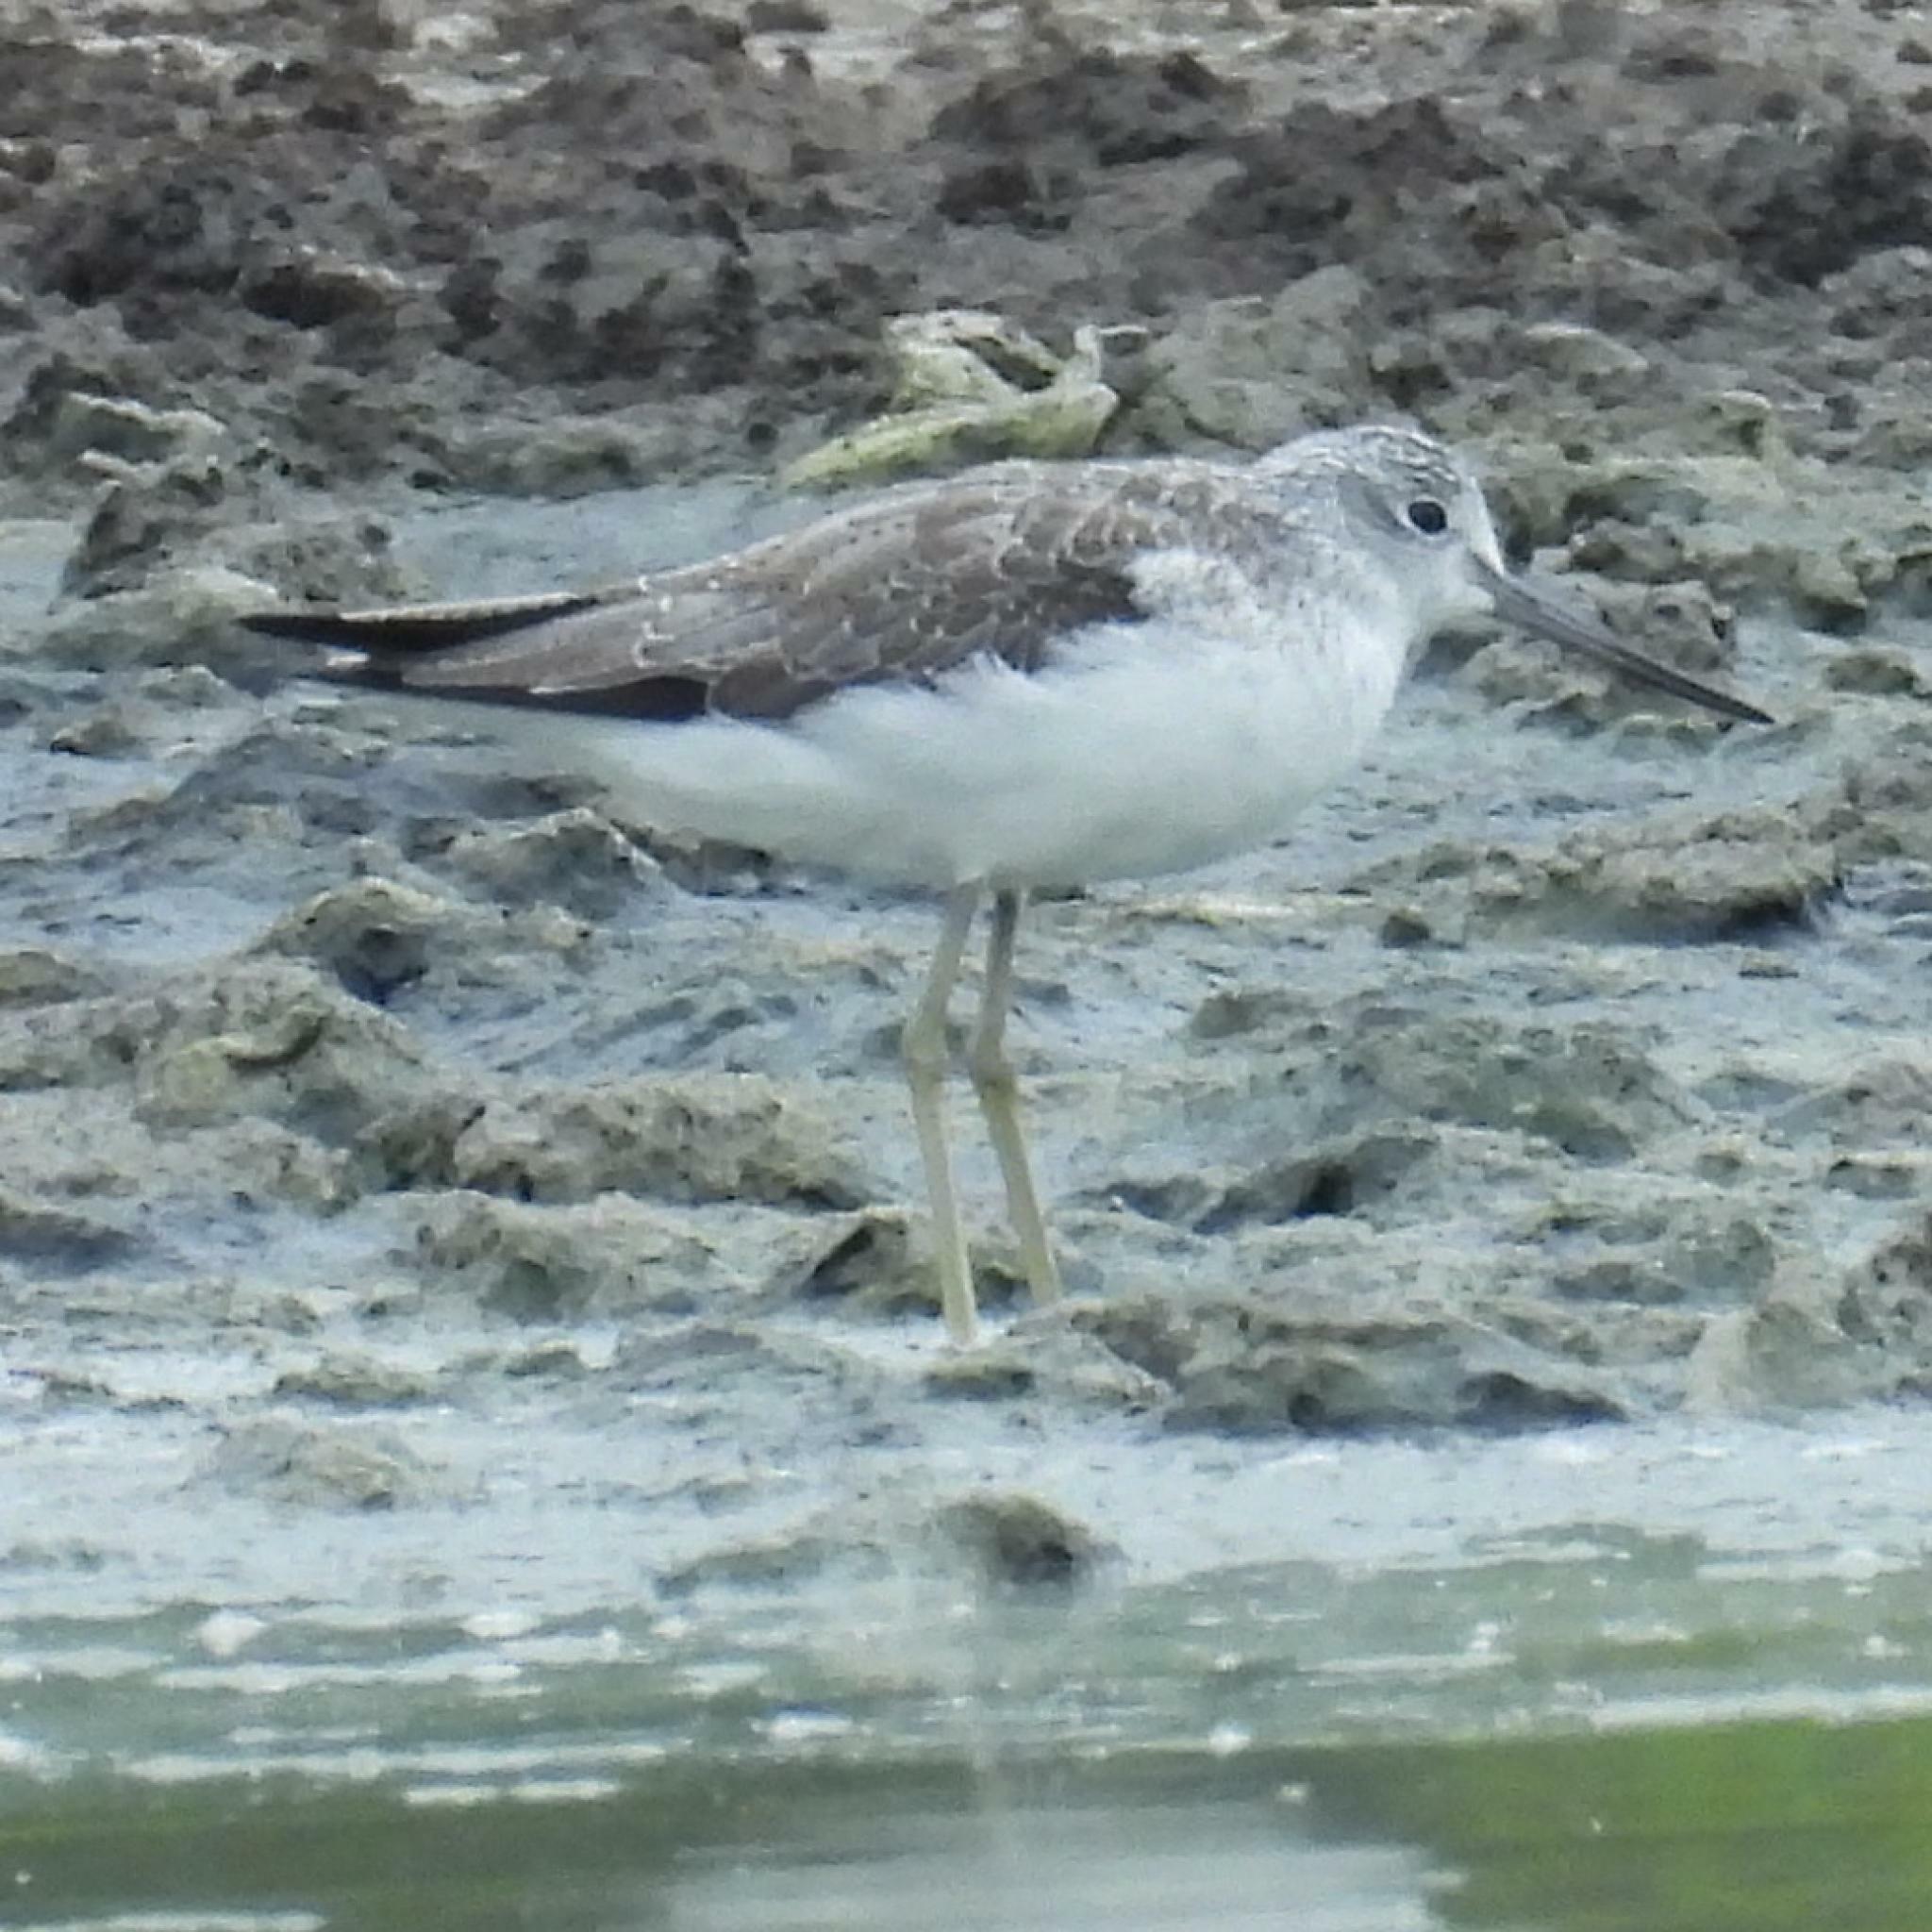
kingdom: Animalia
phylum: Chordata
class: Aves
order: Charadriiformes
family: Scolopacidae
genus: Tringa
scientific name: Tringa nebularia
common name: Common greenshank
